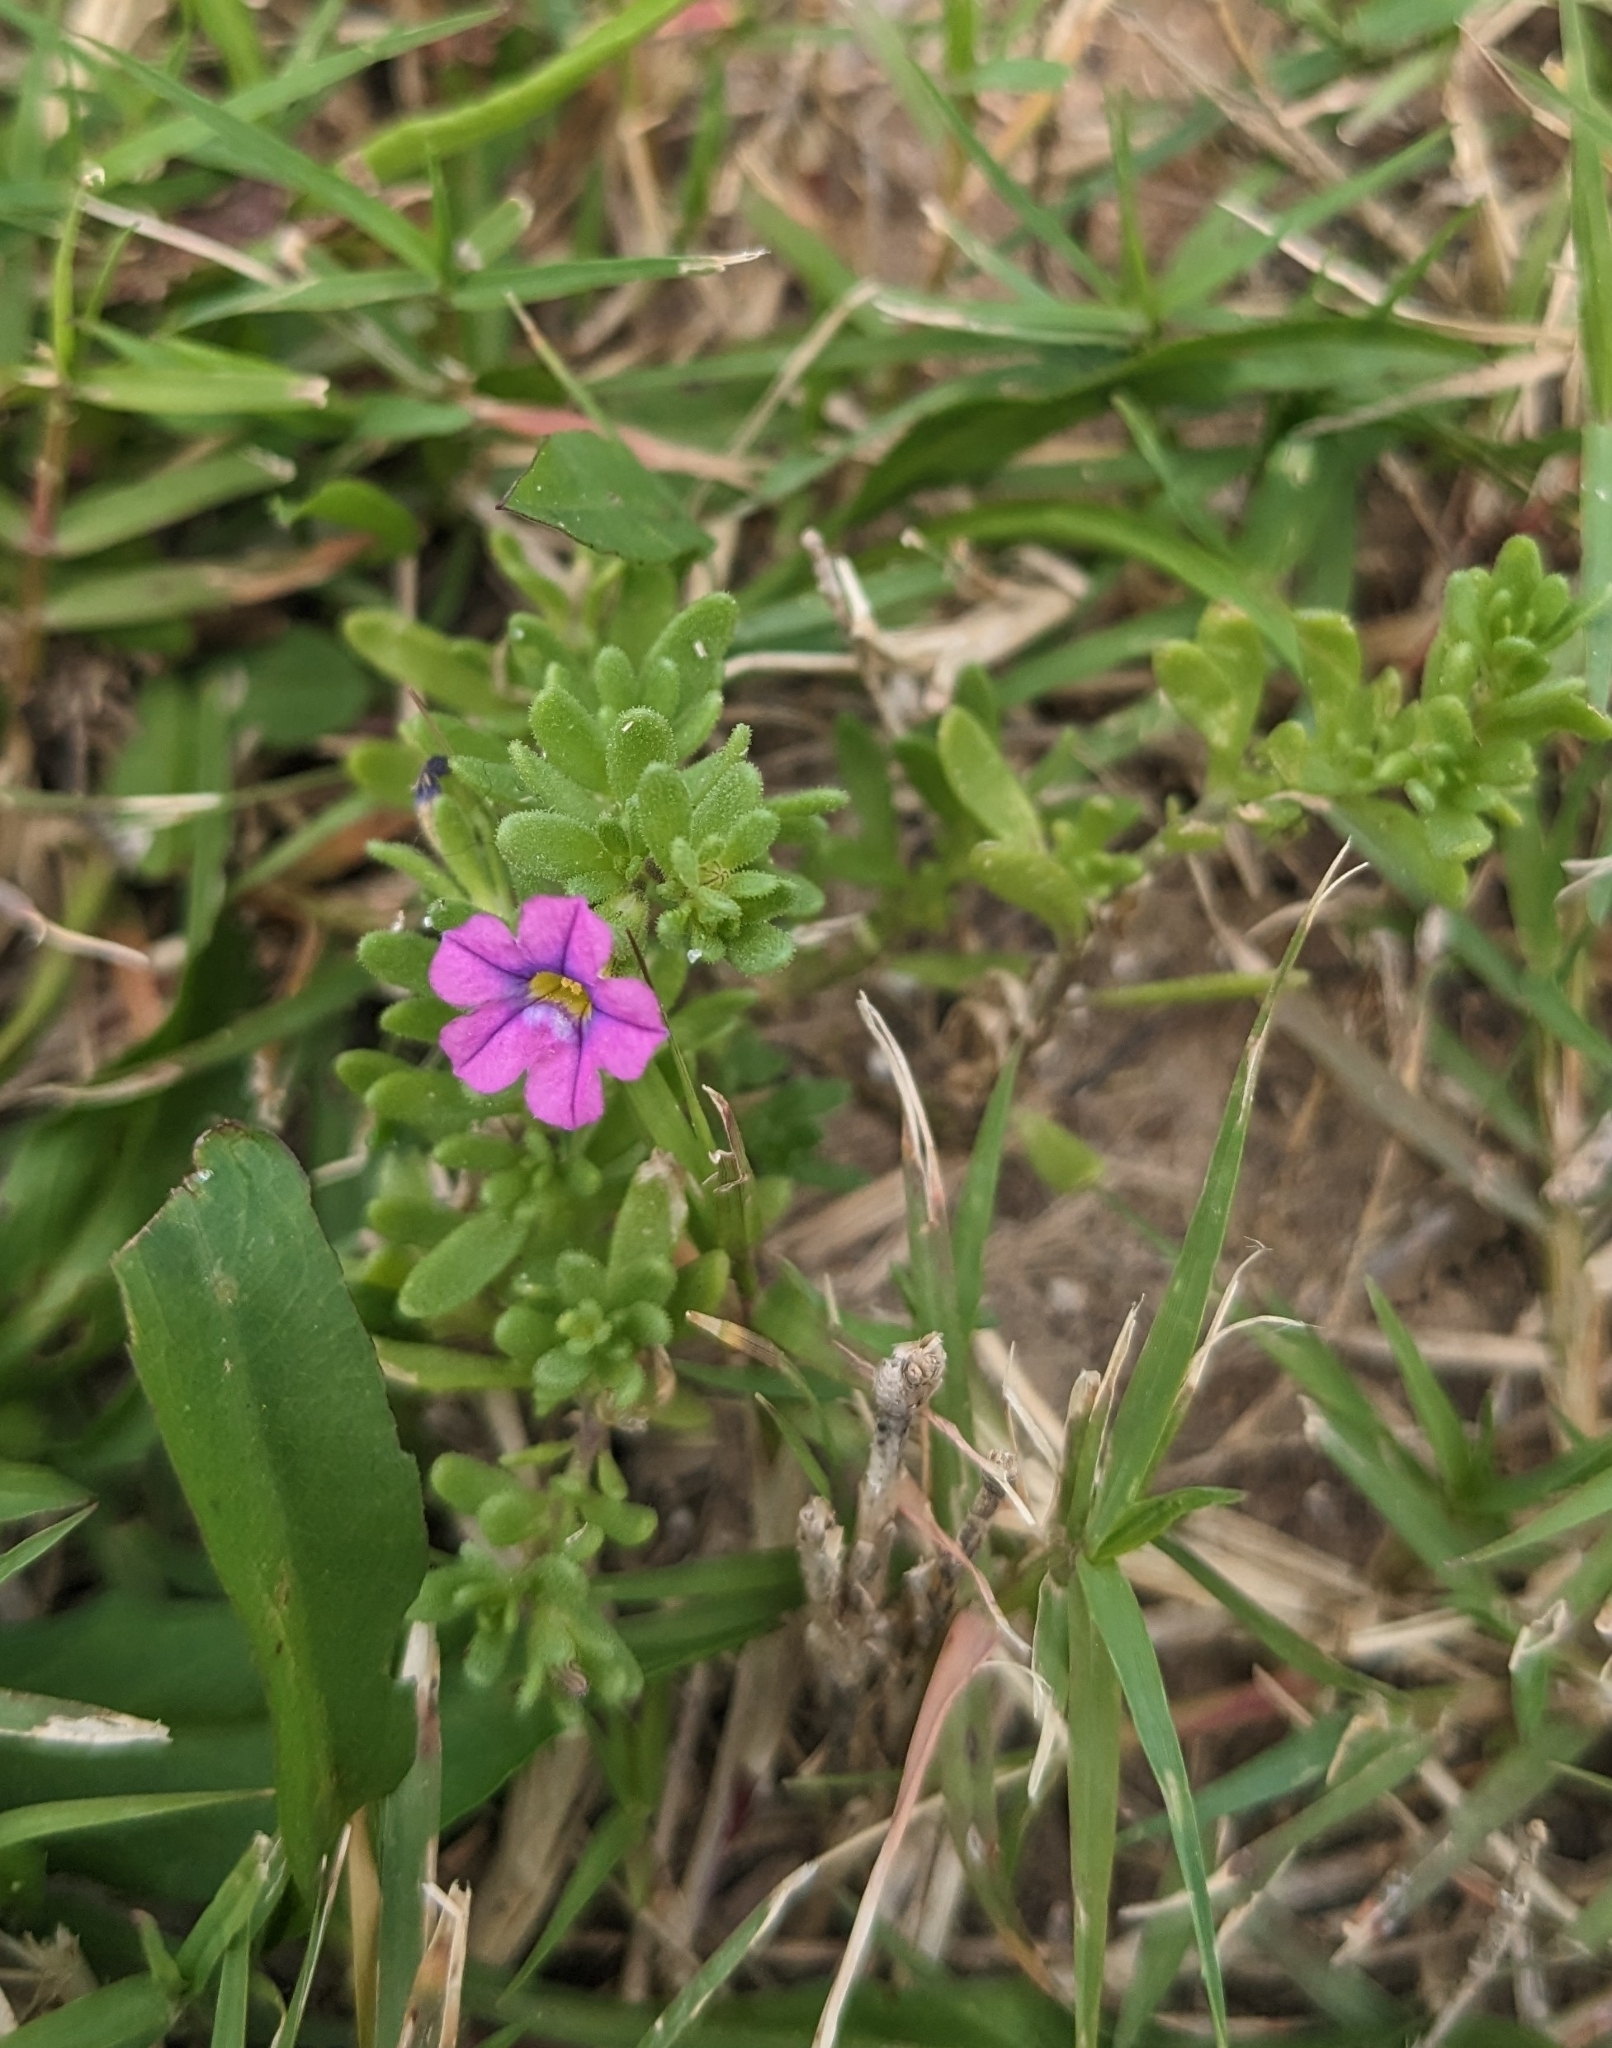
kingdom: Plantae
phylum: Tracheophyta
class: Magnoliopsida
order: Solanales
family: Solanaceae
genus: Calibrachoa
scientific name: Calibrachoa parviflora
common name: Seaside petunia
